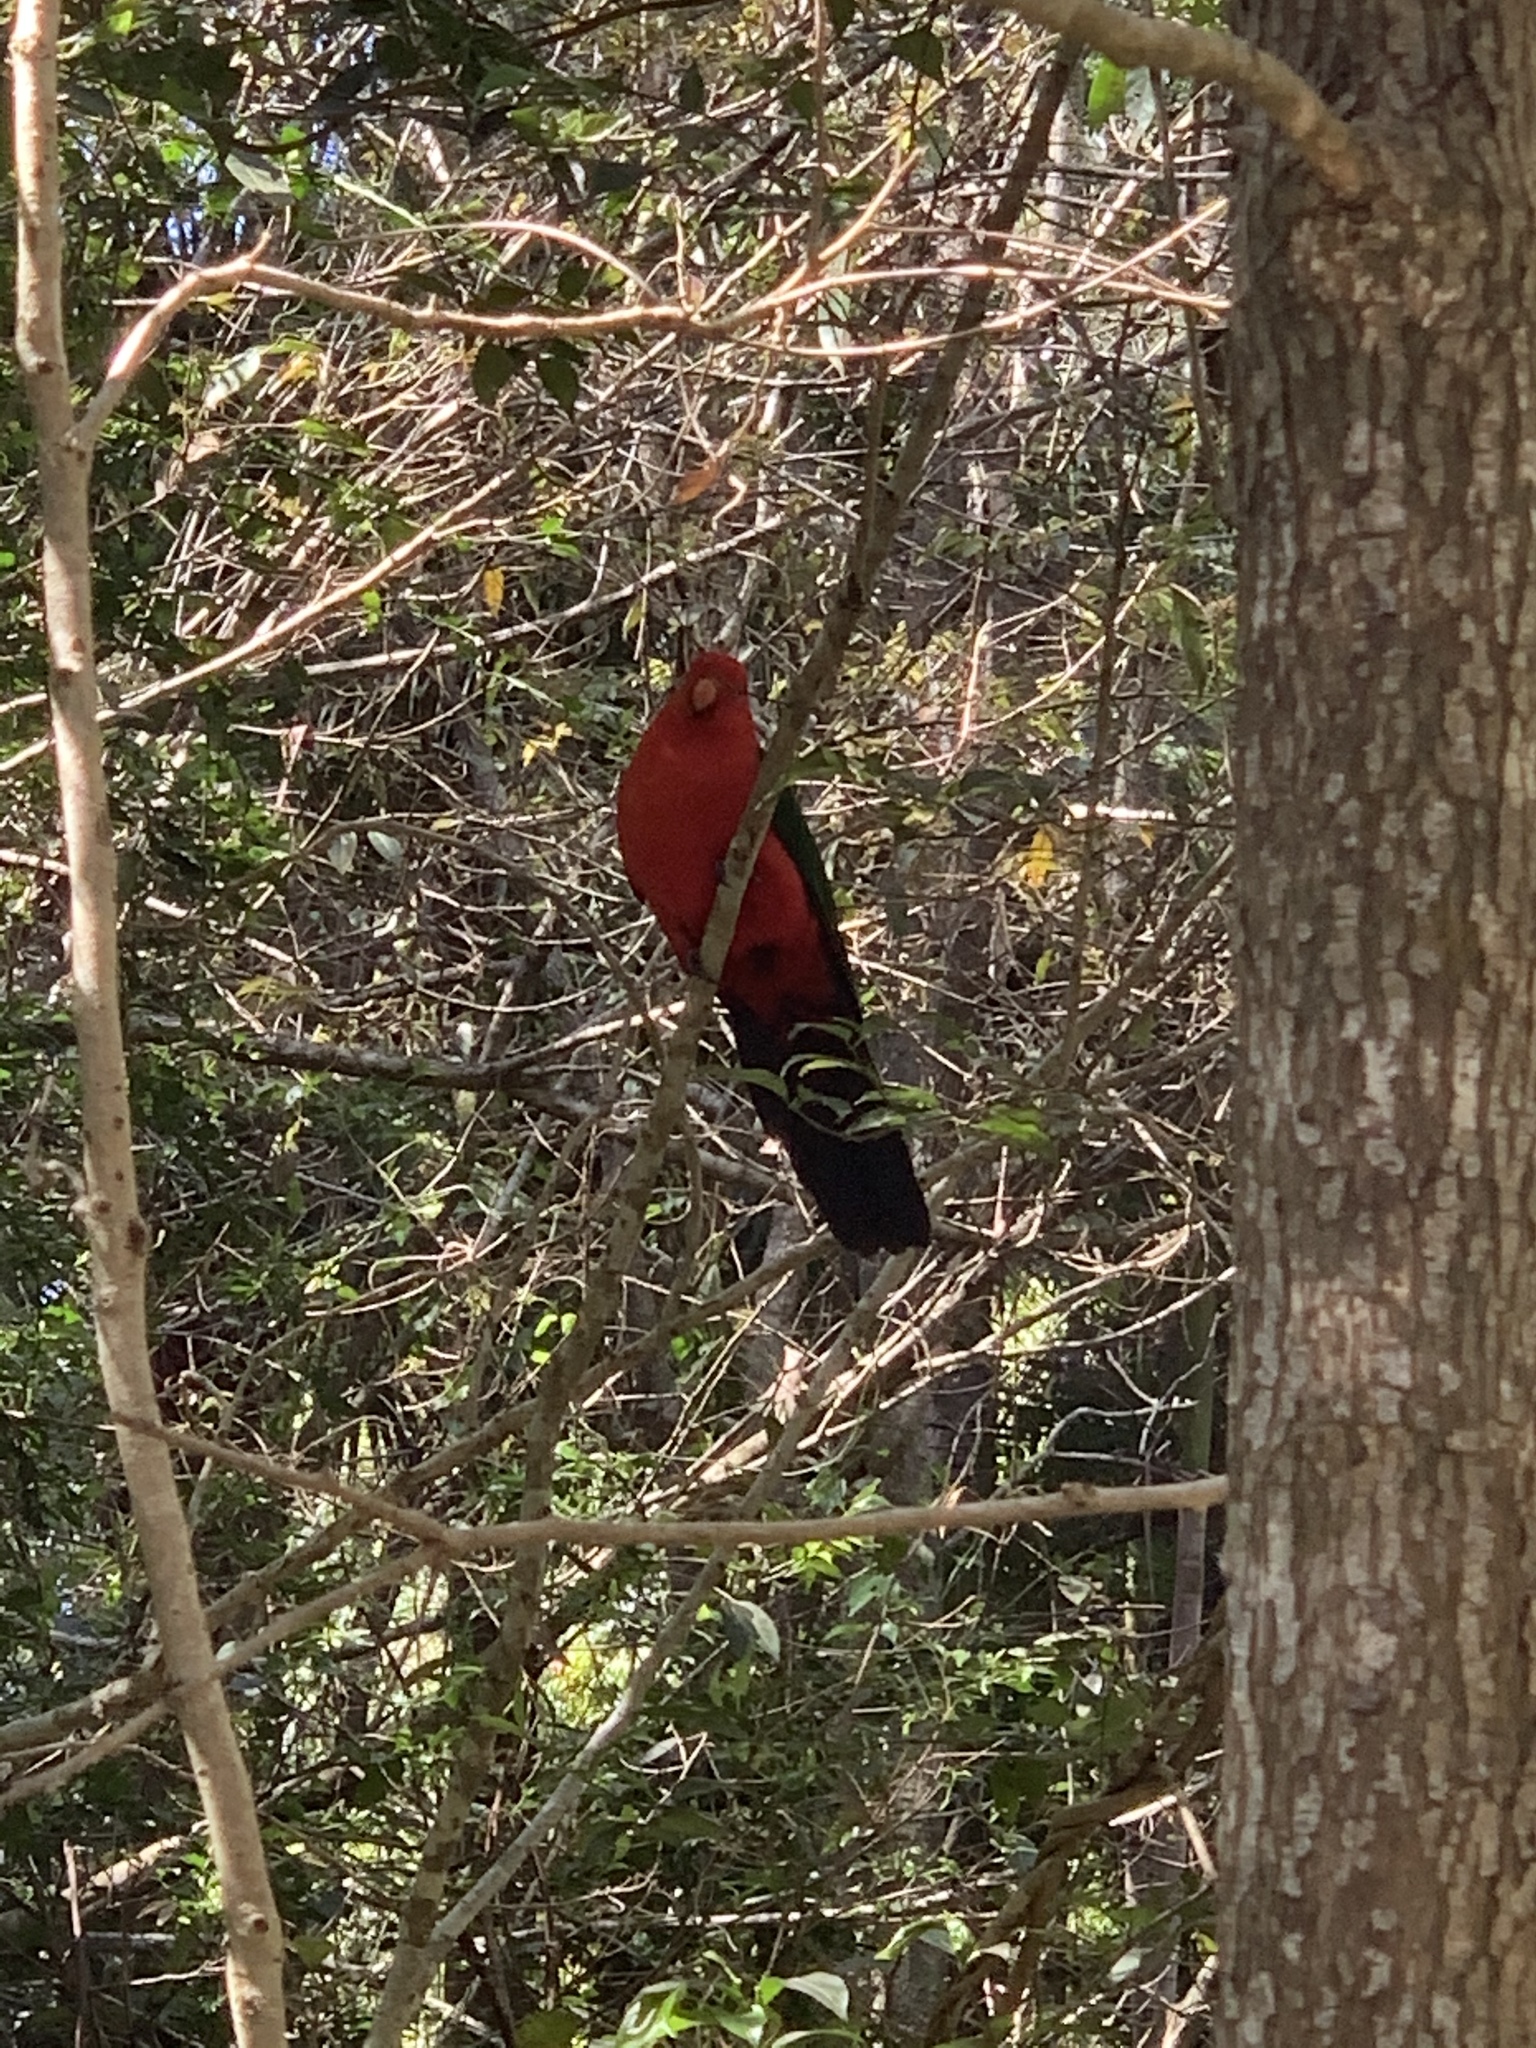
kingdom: Animalia
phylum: Chordata
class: Aves
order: Psittaciformes
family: Psittacidae
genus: Alisterus
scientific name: Alisterus scapularis
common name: Australian king parrot
